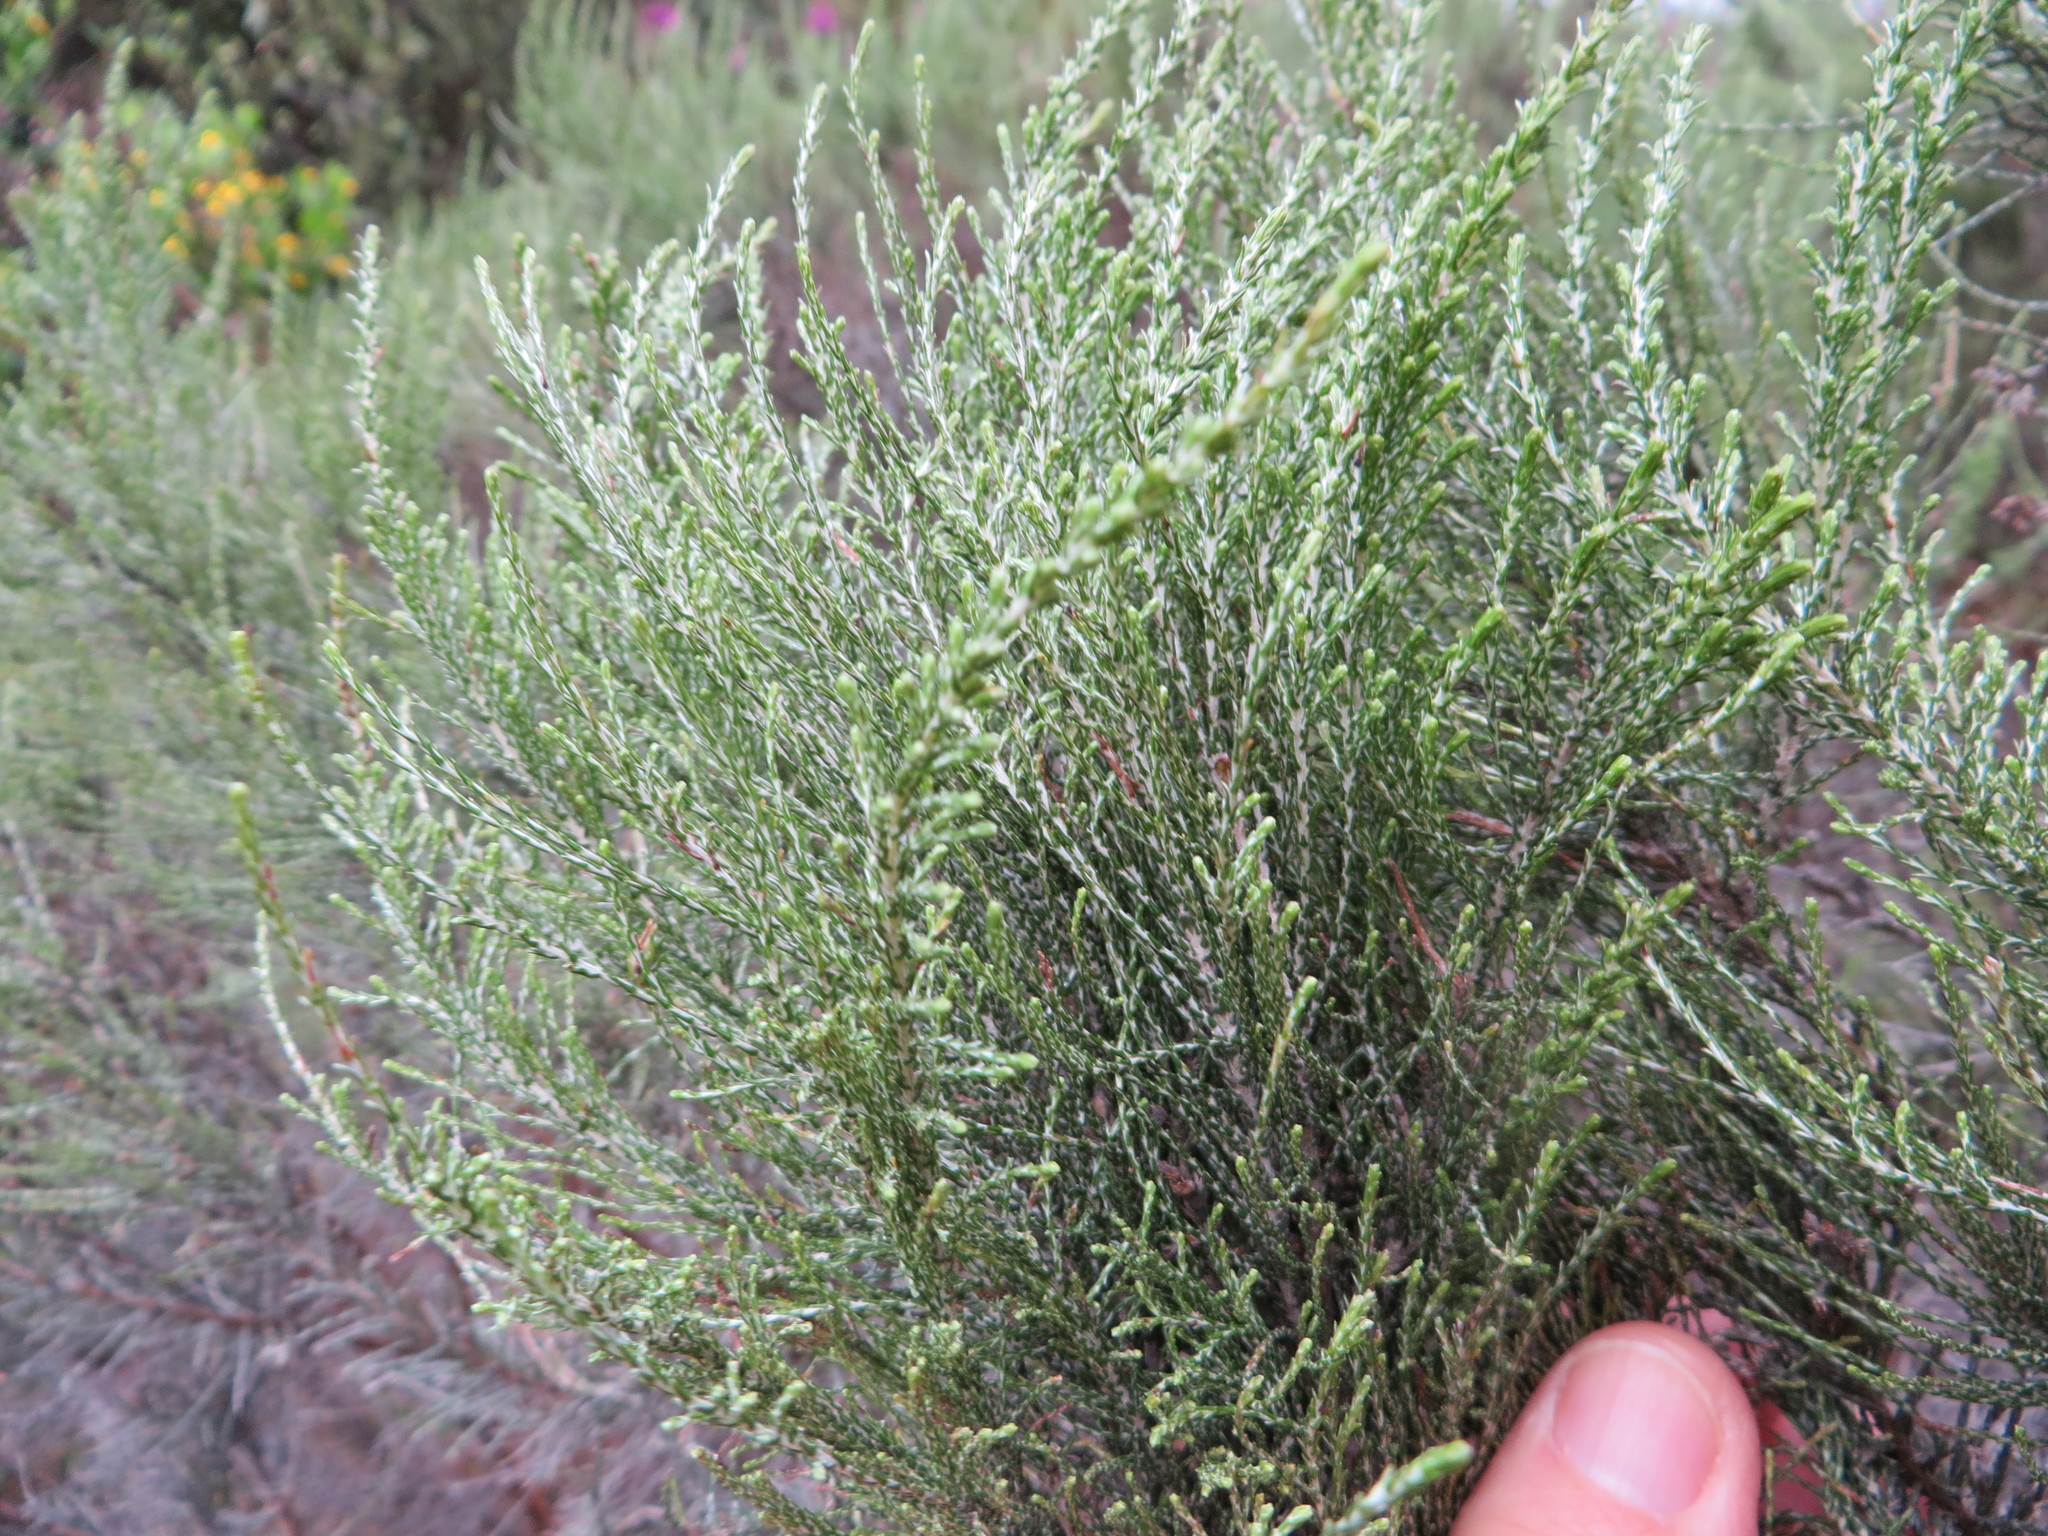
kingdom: Plantae
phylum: Tracheophyta
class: Magnoliopsida
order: Asterales
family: Asteraceae
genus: Dicerothamnus
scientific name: Dicerothamnus rhinocerotis
